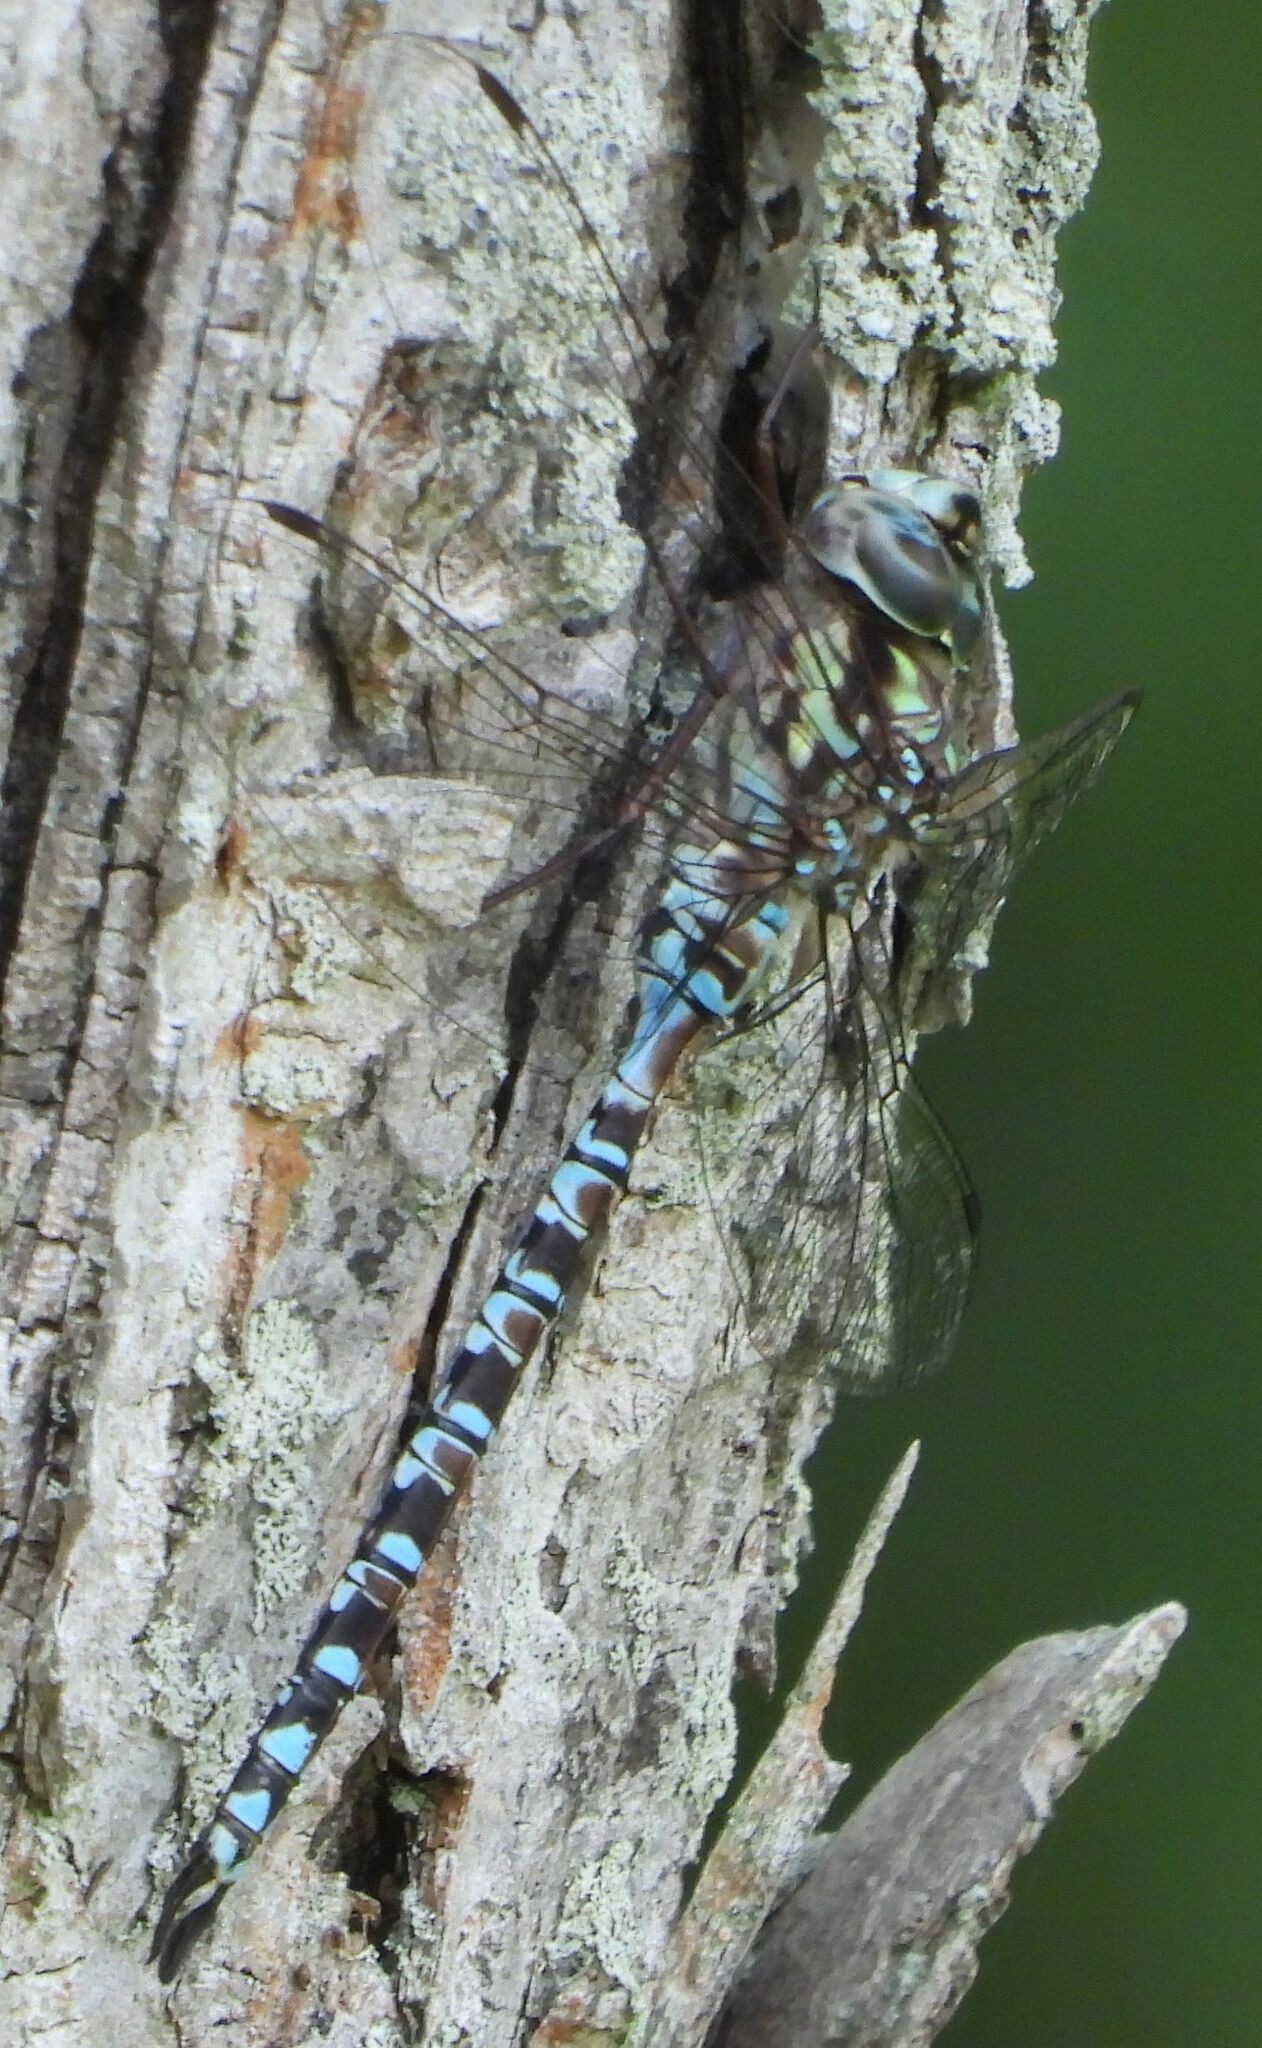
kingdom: Animalia
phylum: Arthropoda
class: Insecta
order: Odonata
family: Aeshnidae
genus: Aeshna
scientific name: Aeshna clepsydra
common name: Mottled darner
